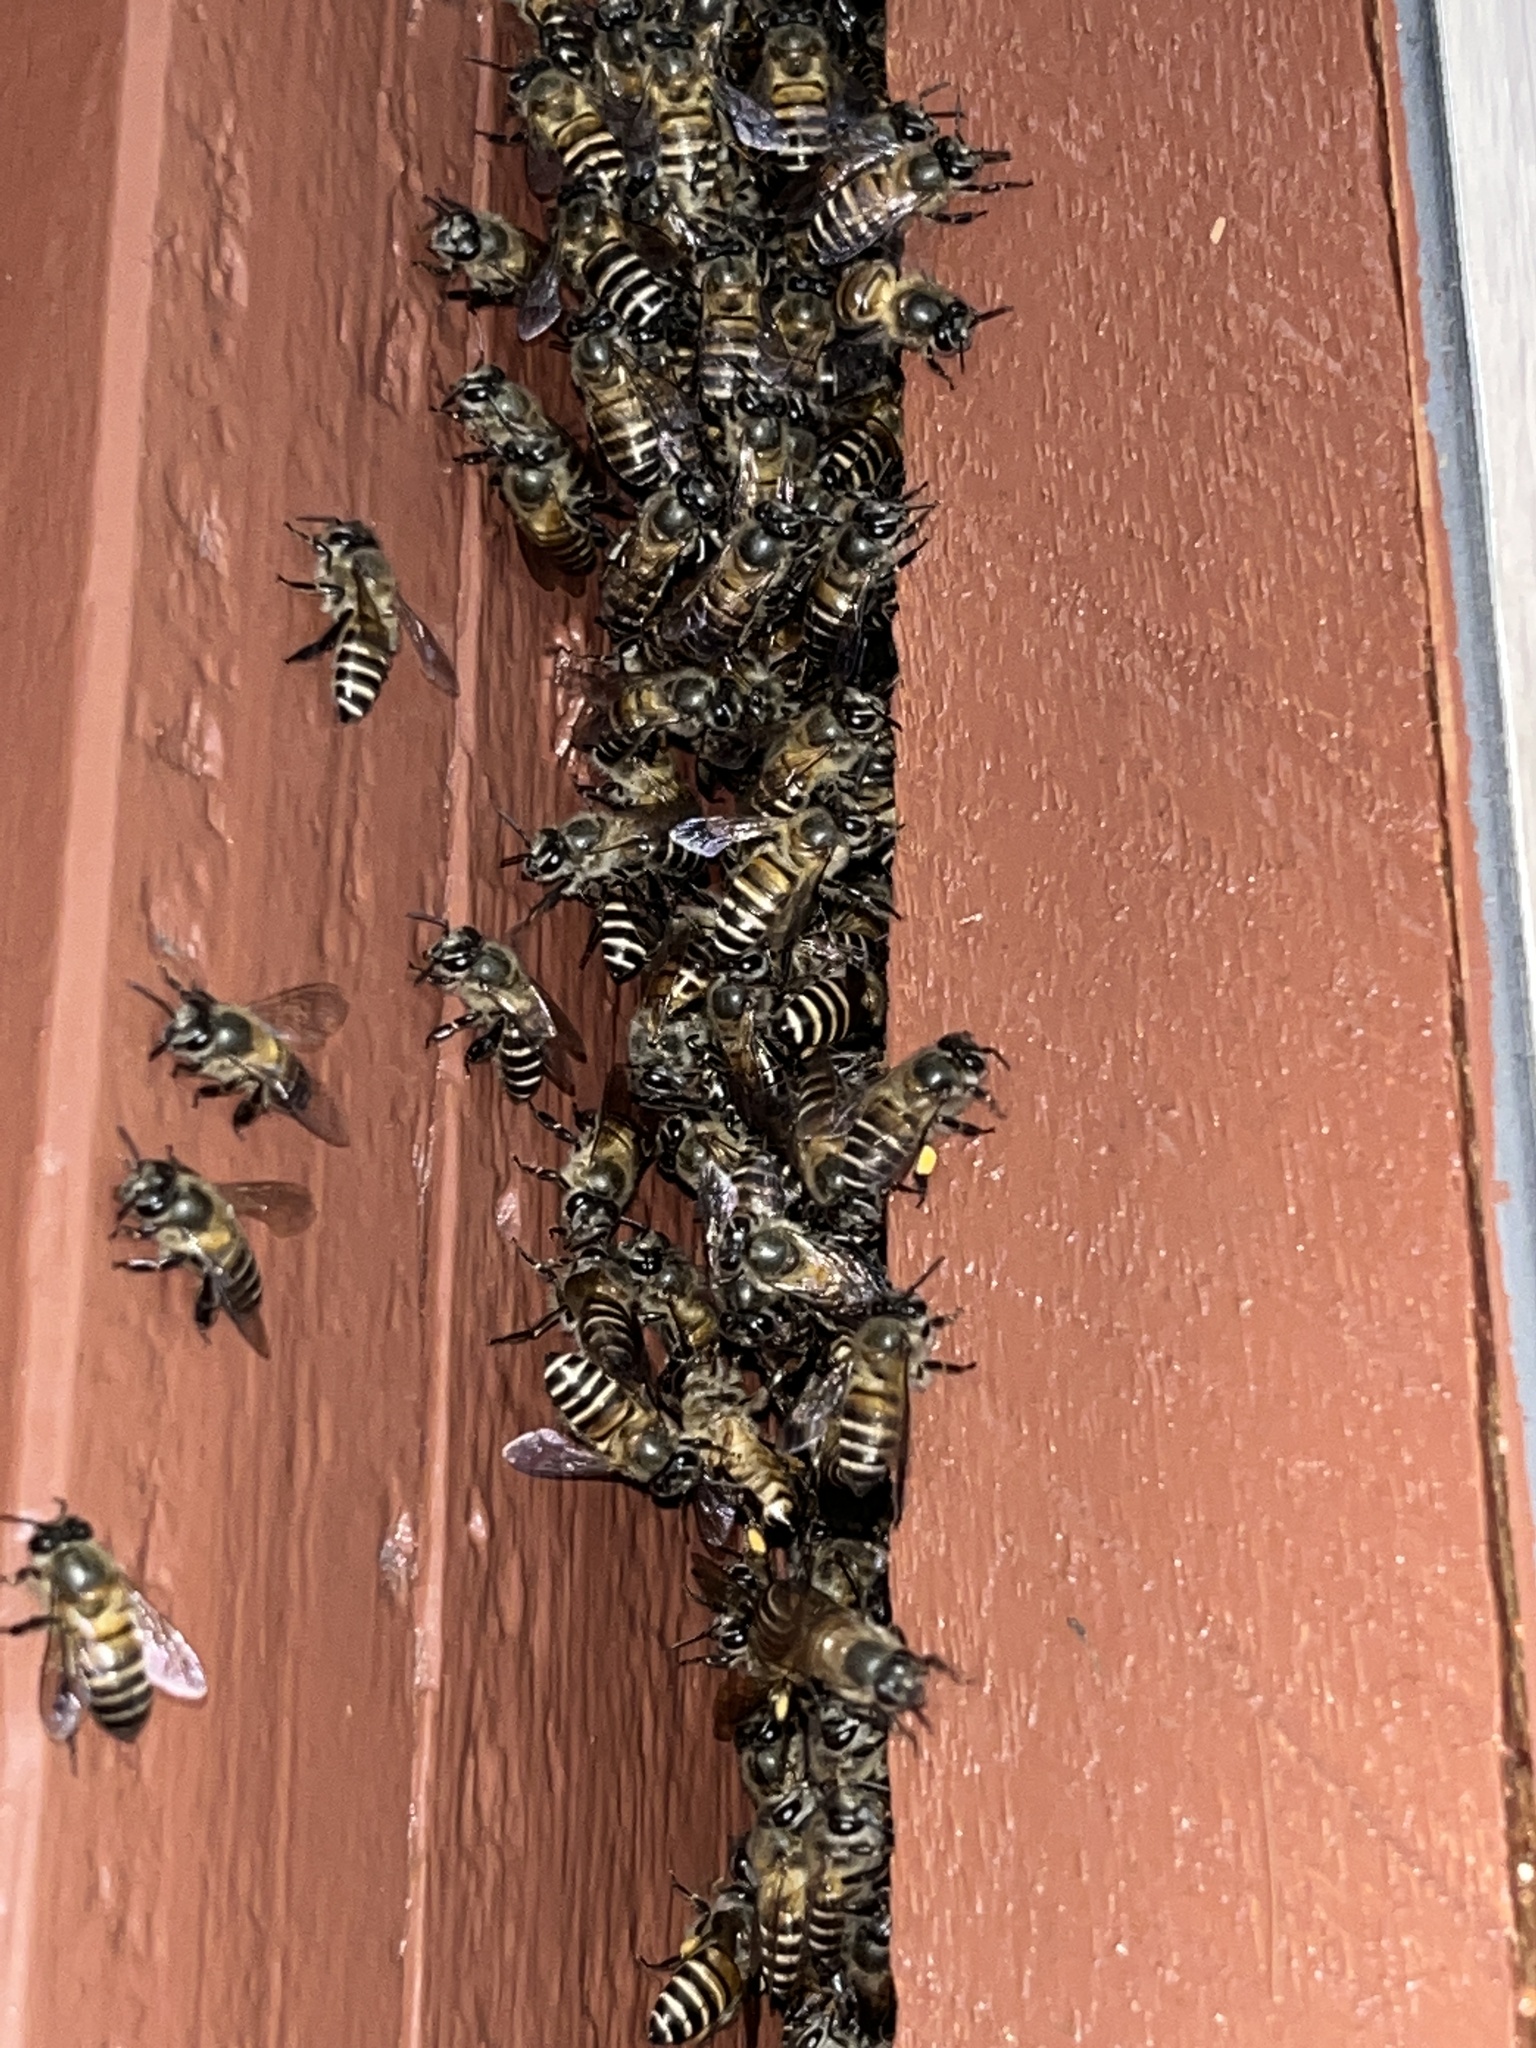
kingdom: Animalia
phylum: Arthropoda
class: Insecta
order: Hymenoptera
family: Apidae
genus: Apis
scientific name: Apis cerana
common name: Honey bee
